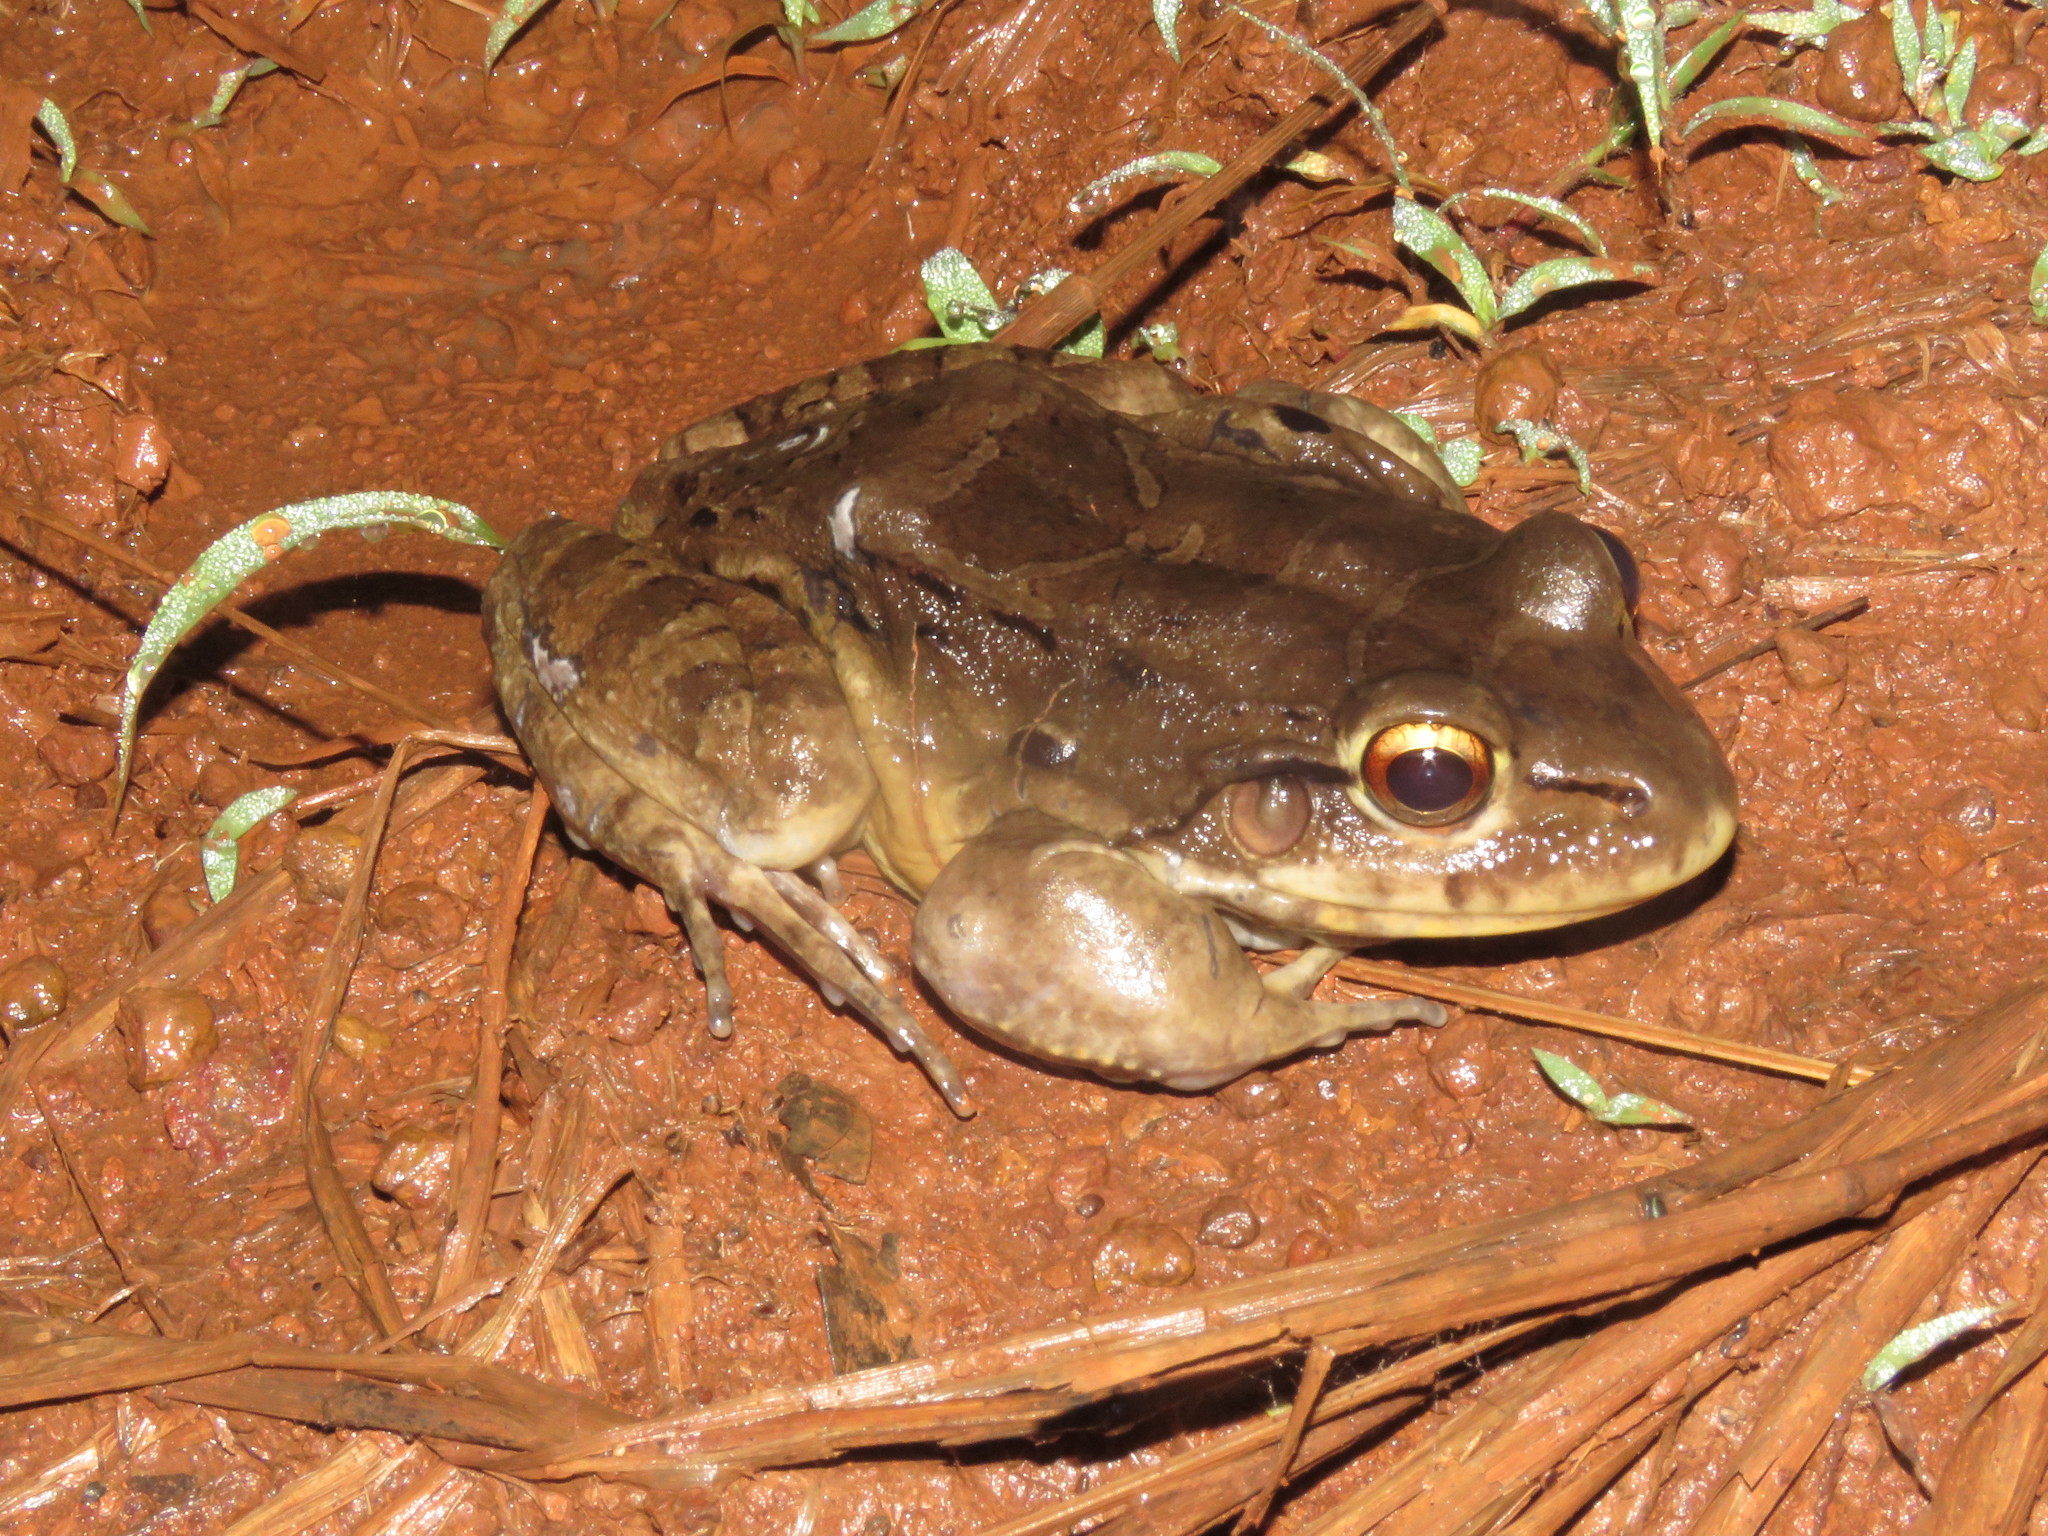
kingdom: Animalia
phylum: Chordata
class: Amphibia
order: Anura
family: Leptodactylidae
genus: Leptodactylus
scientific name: Leptodactylus vastus
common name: Northeastern pepper frog
